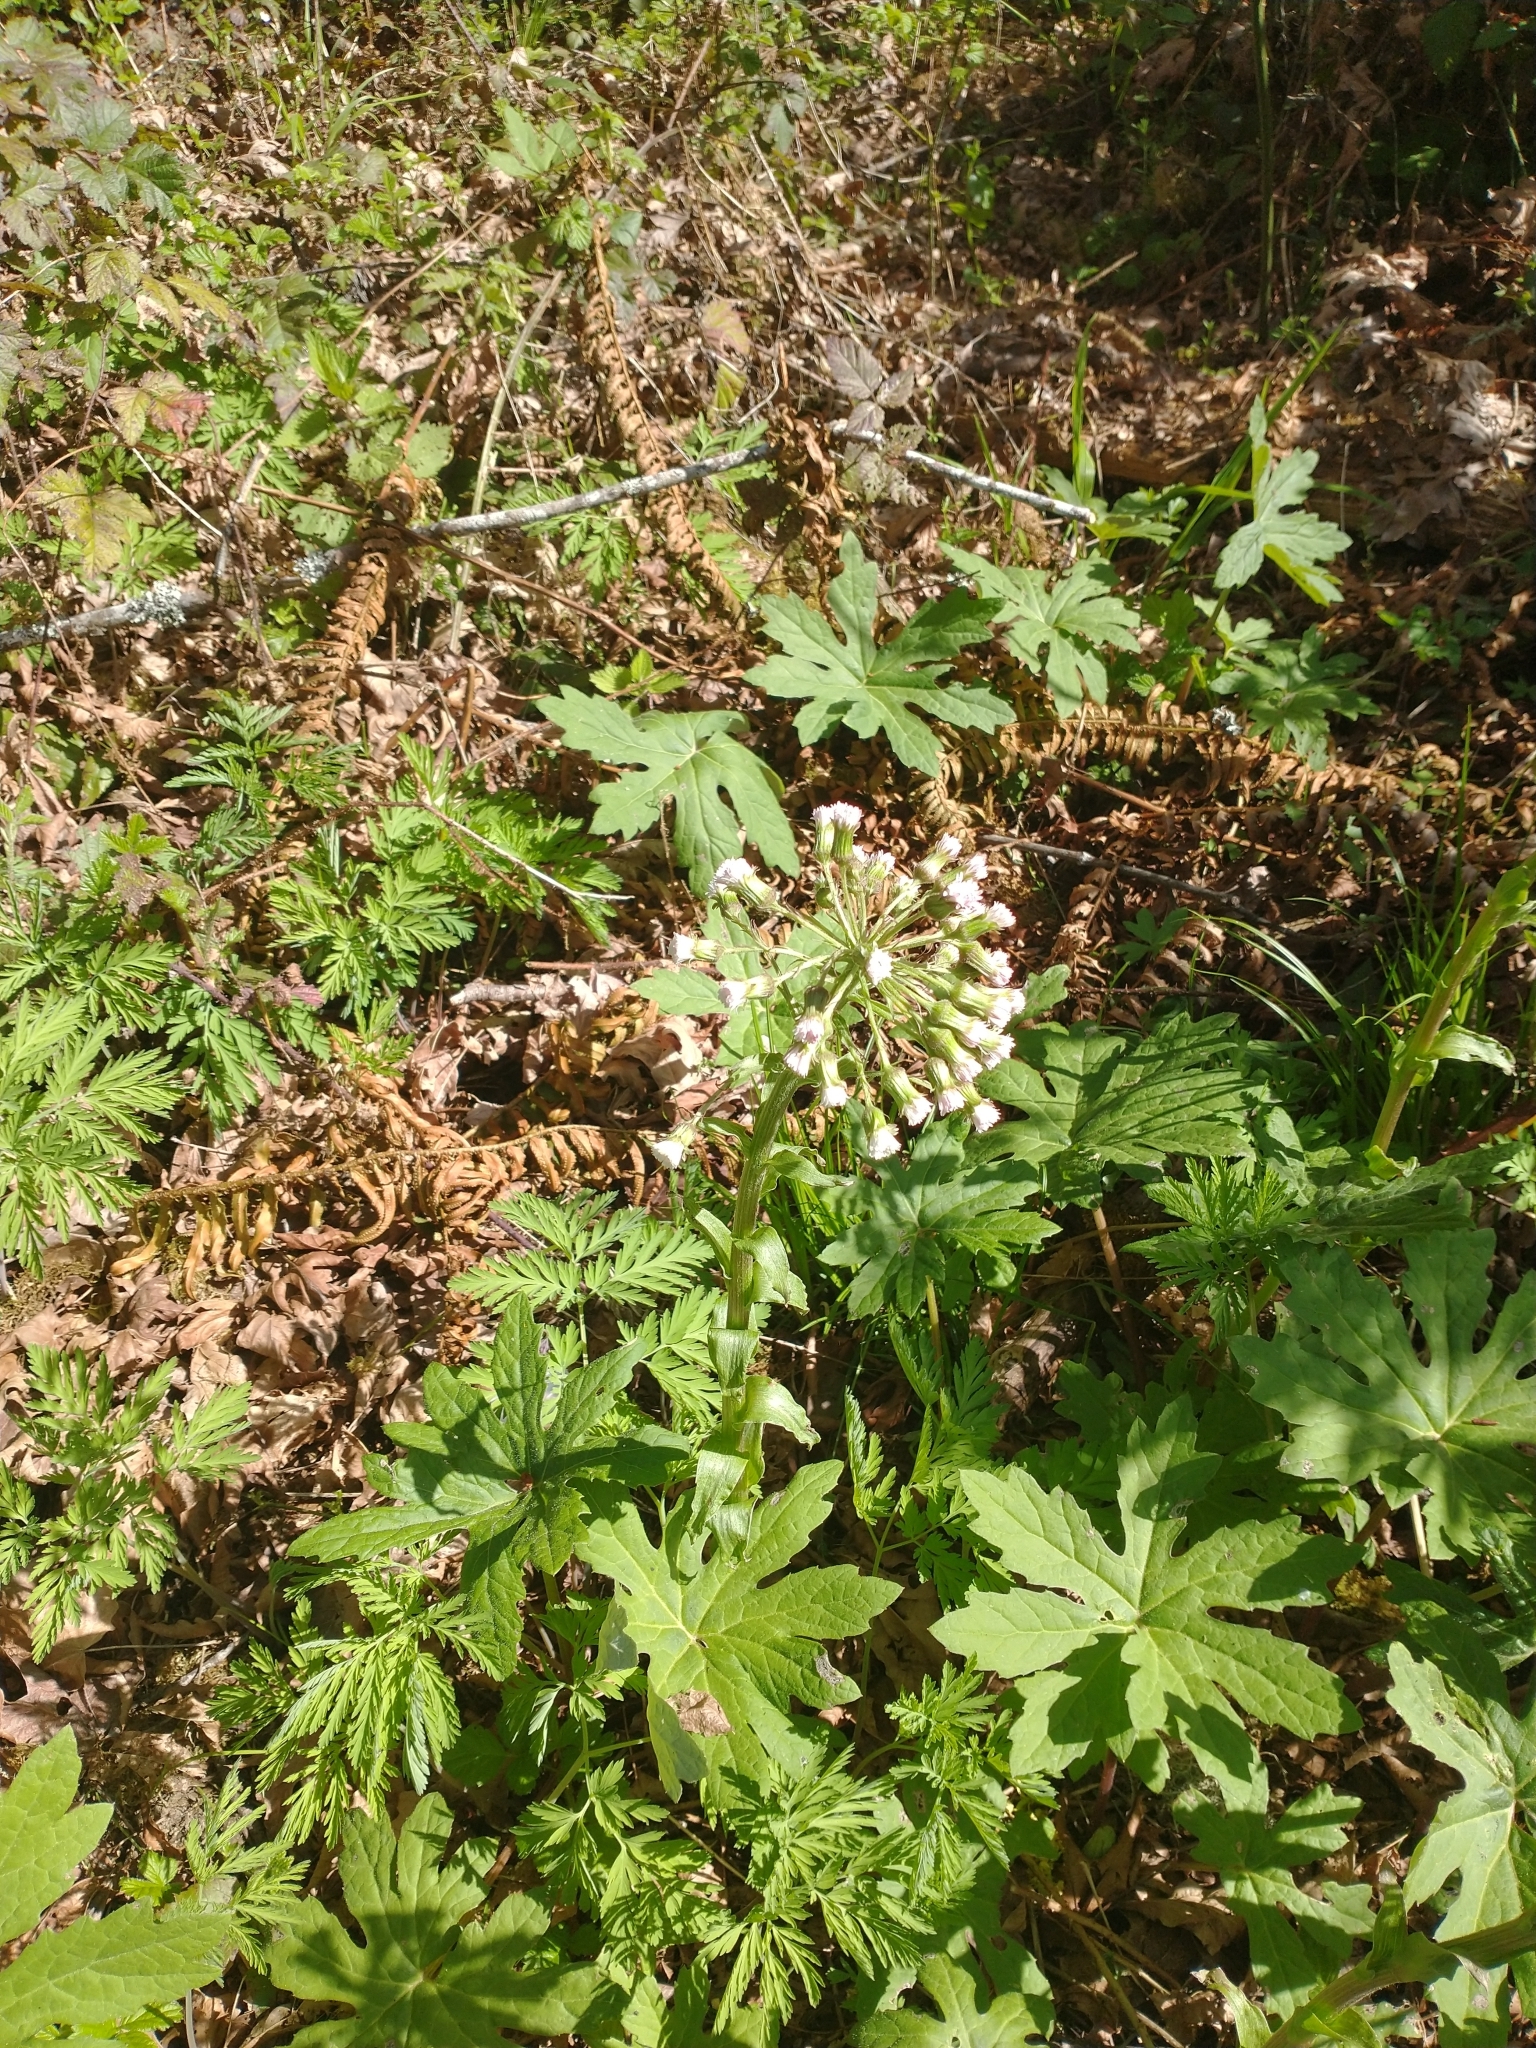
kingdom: Plantae
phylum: Tracheophyta
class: Magnoliopsida
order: Asterales
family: Asteraceae
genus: Petasites
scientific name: Petasites frigidus
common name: Arctic butterbur
